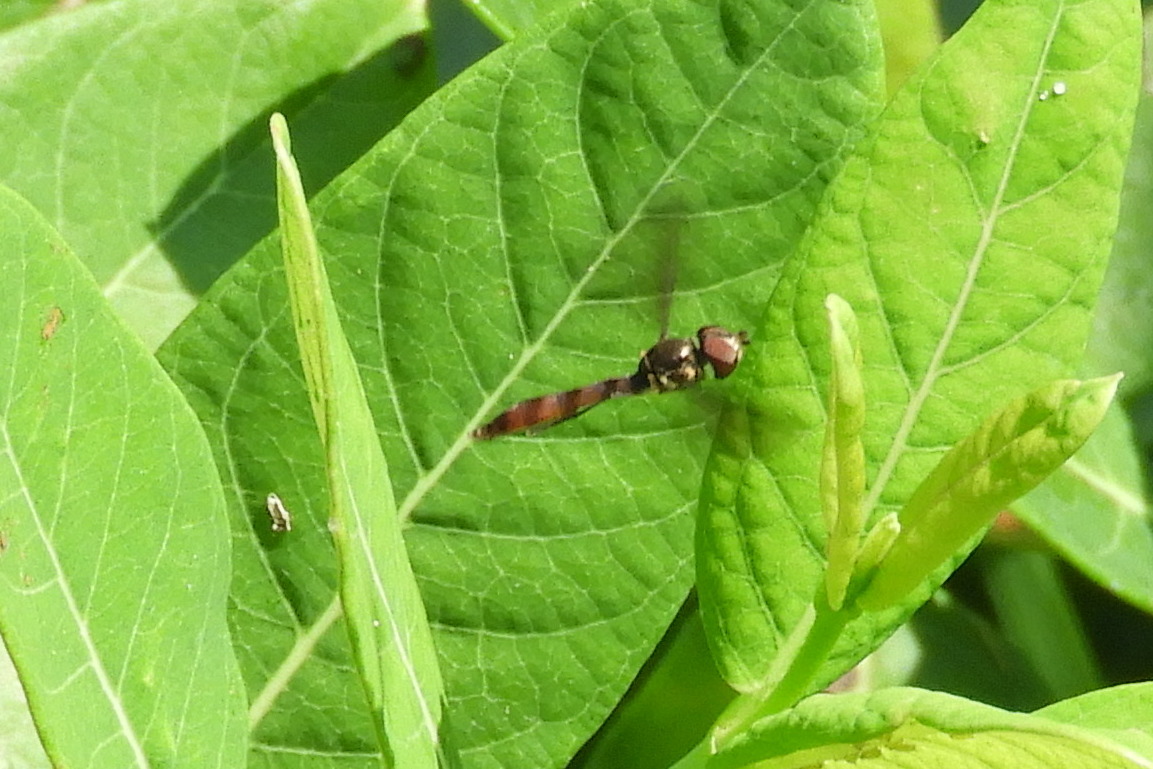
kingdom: Animalia
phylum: Arthropoda
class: Insecta
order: Diptera
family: Syrphidae
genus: Ocyptamus
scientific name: Ocyptamus fuscipennis
